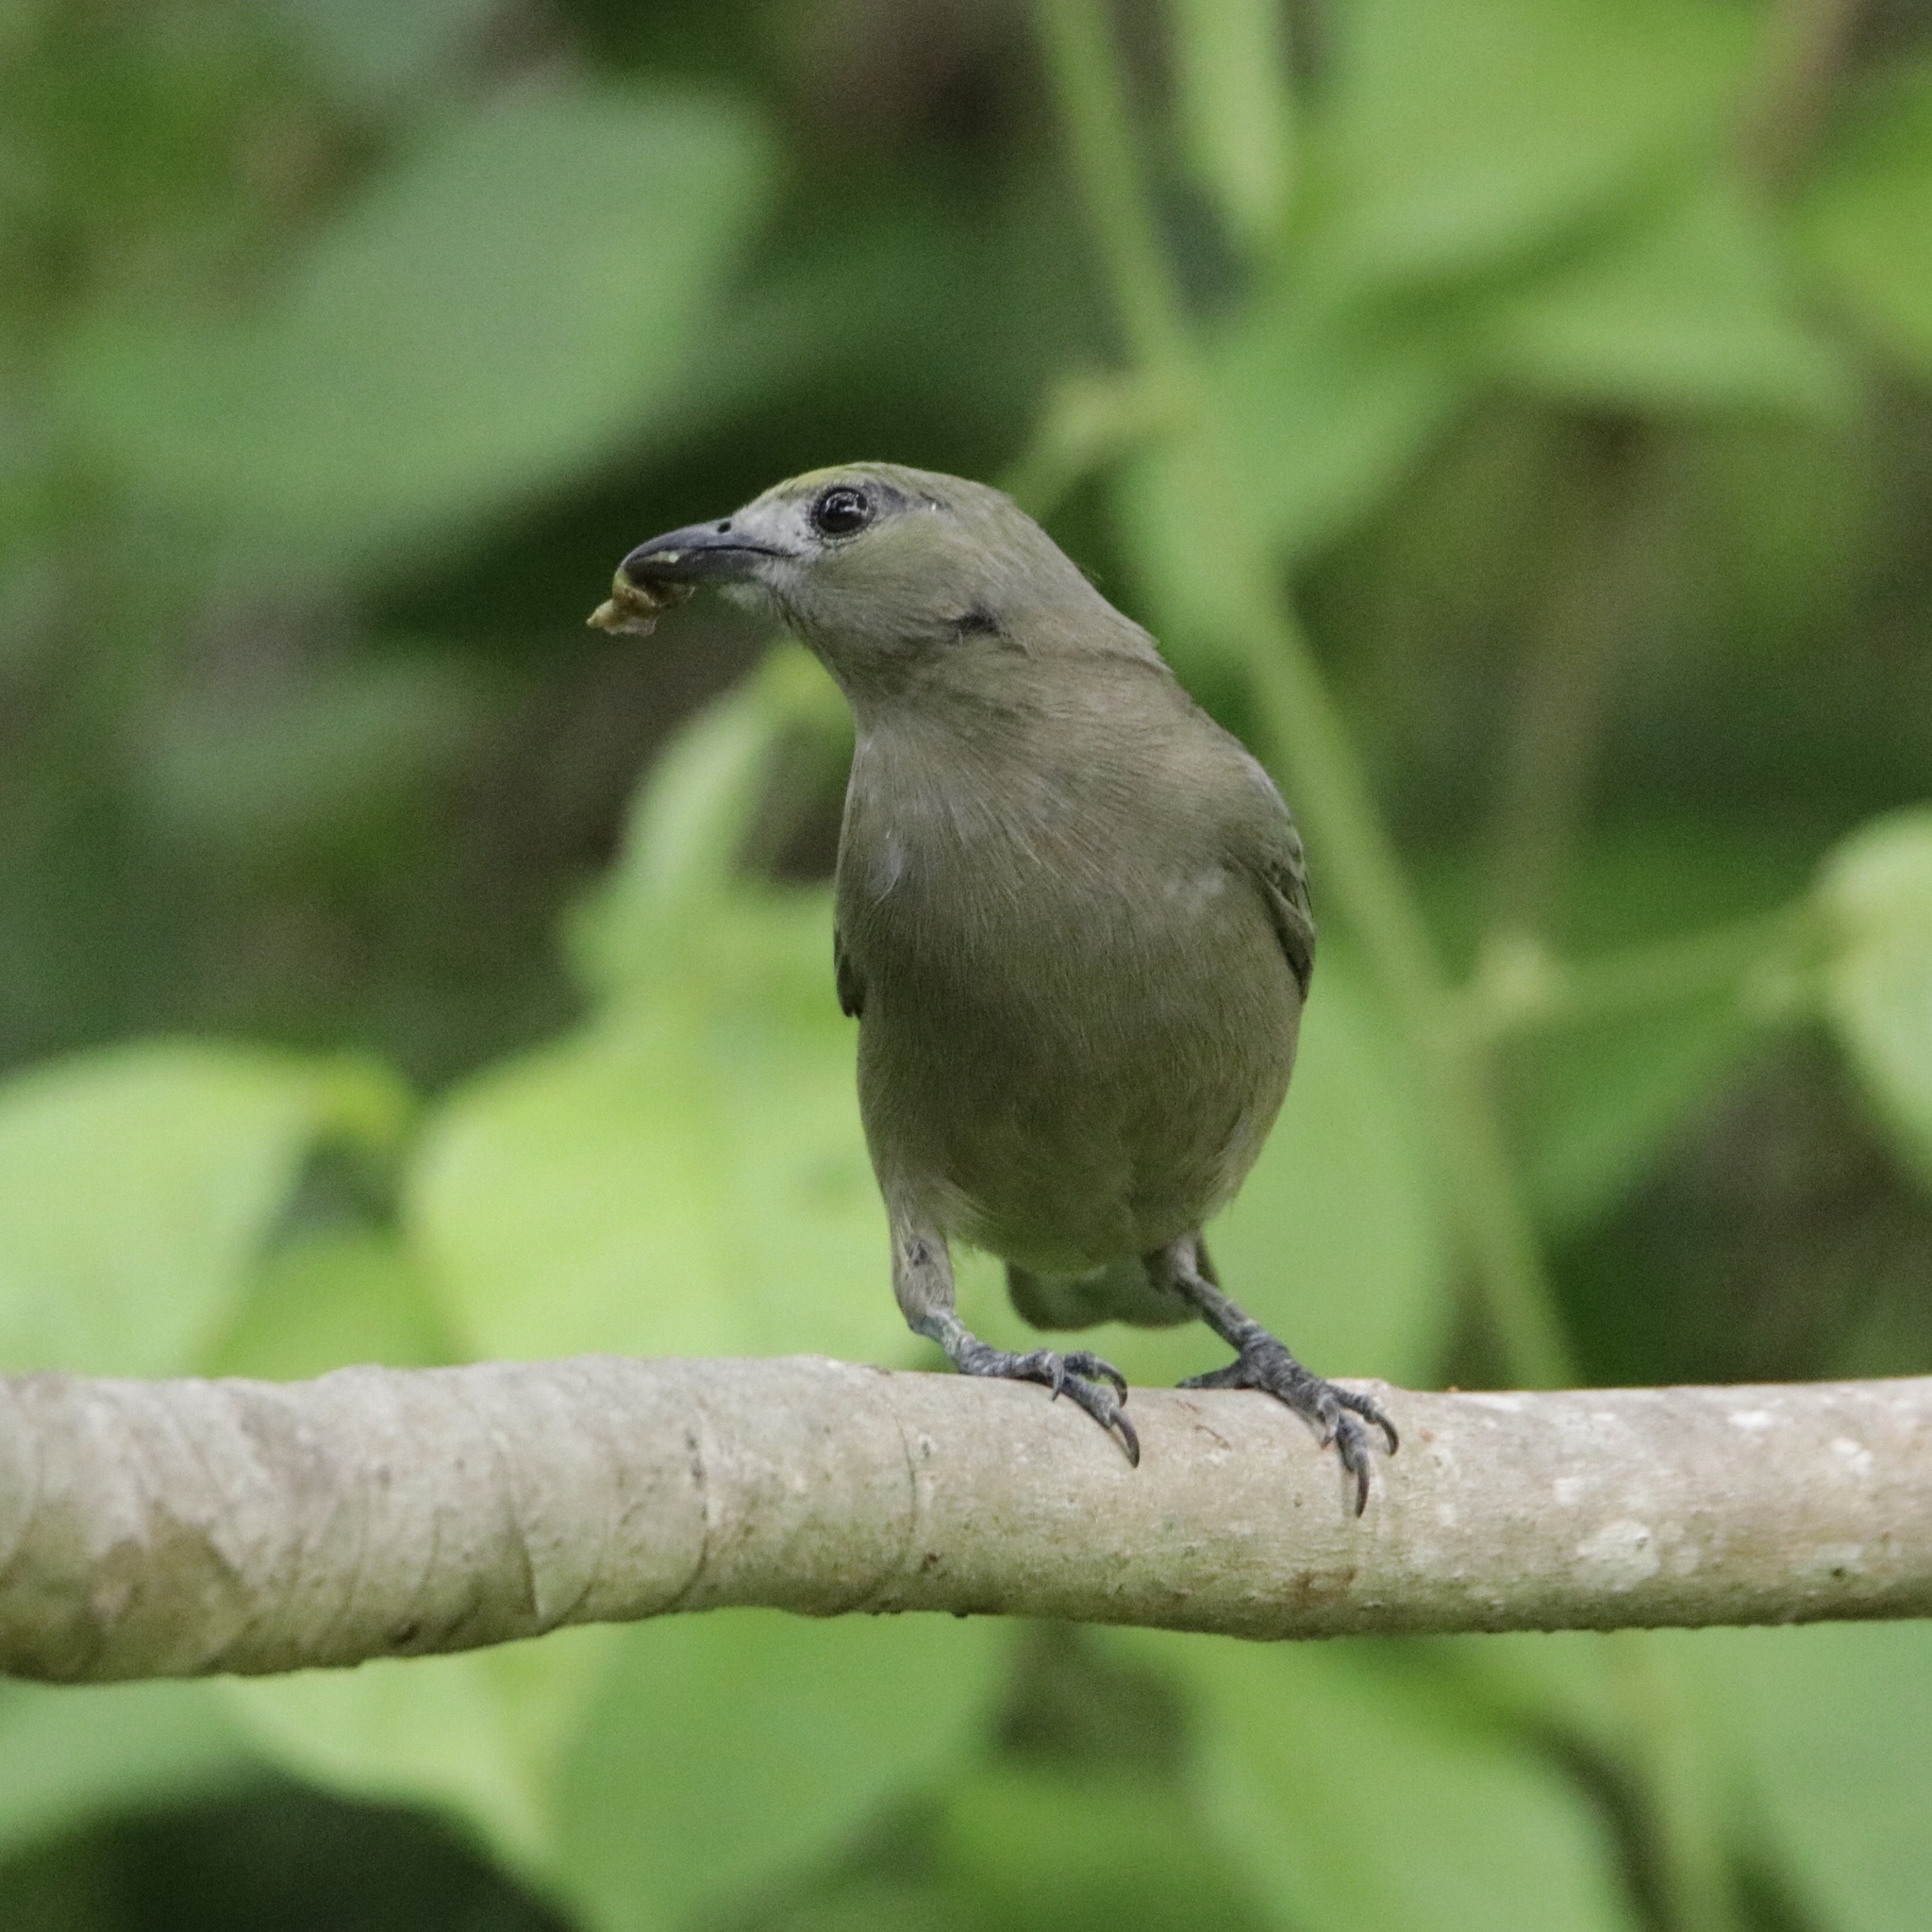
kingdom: Animalia
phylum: Chordata
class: Aves
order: Passeriformes
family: Thraupidae
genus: Thraupis
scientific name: Thraupis palmarum
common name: Palm tanager
